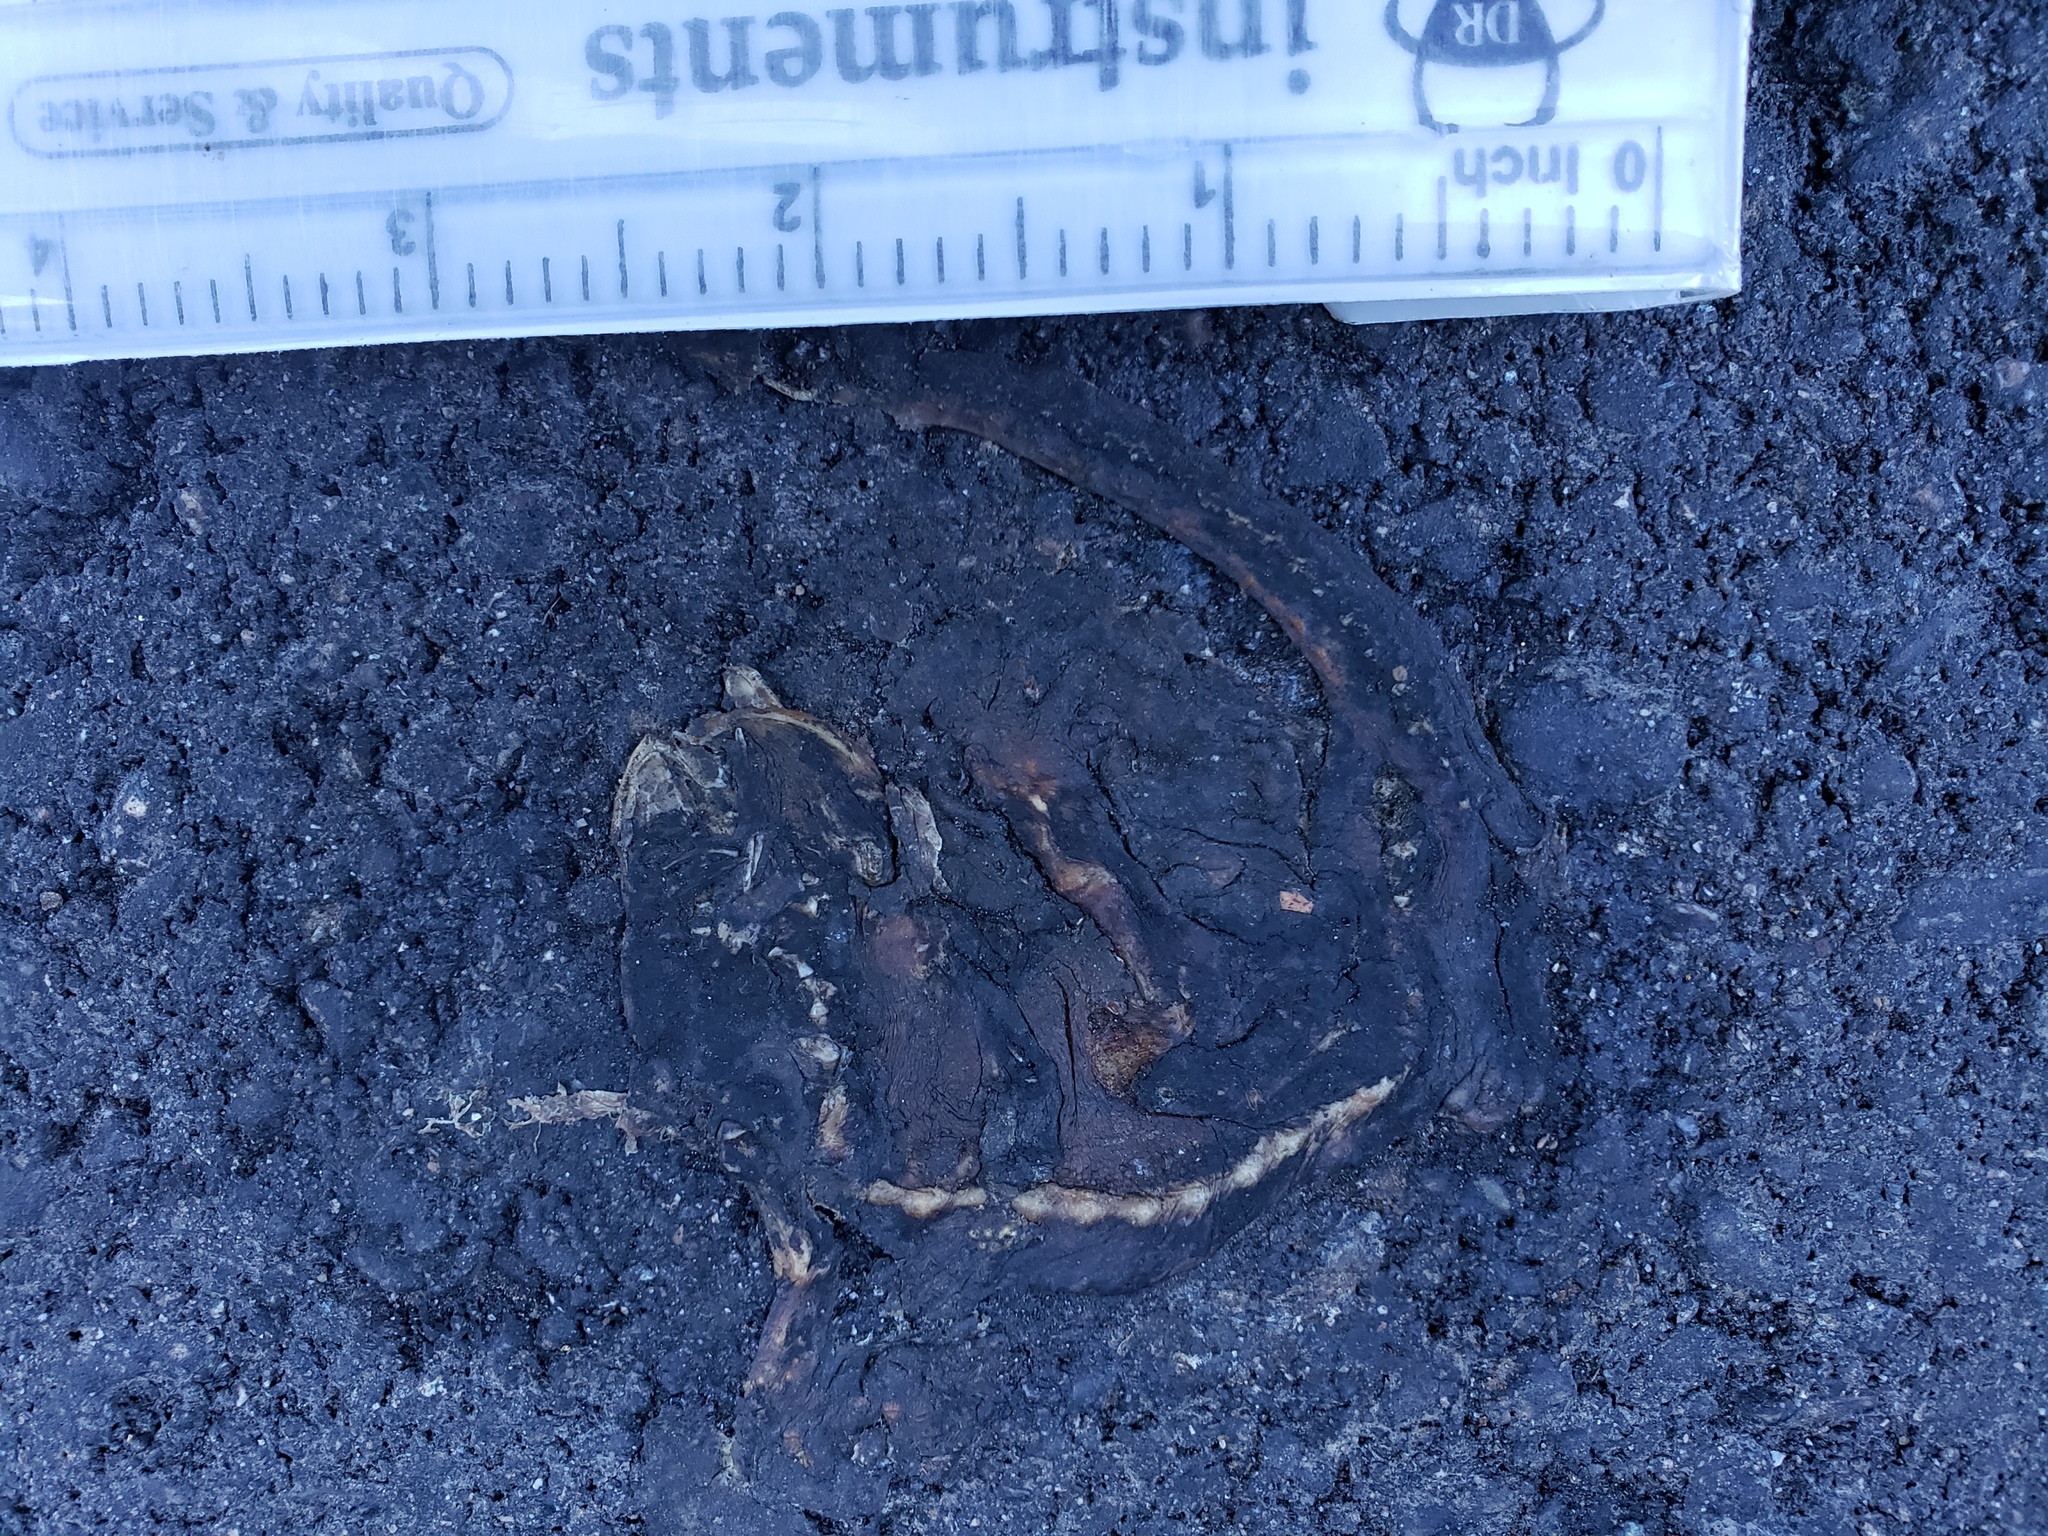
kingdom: Animalia
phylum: Chordata
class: Amphibia
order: Caudata
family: Salamandridae
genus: Taricha
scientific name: Taricha
